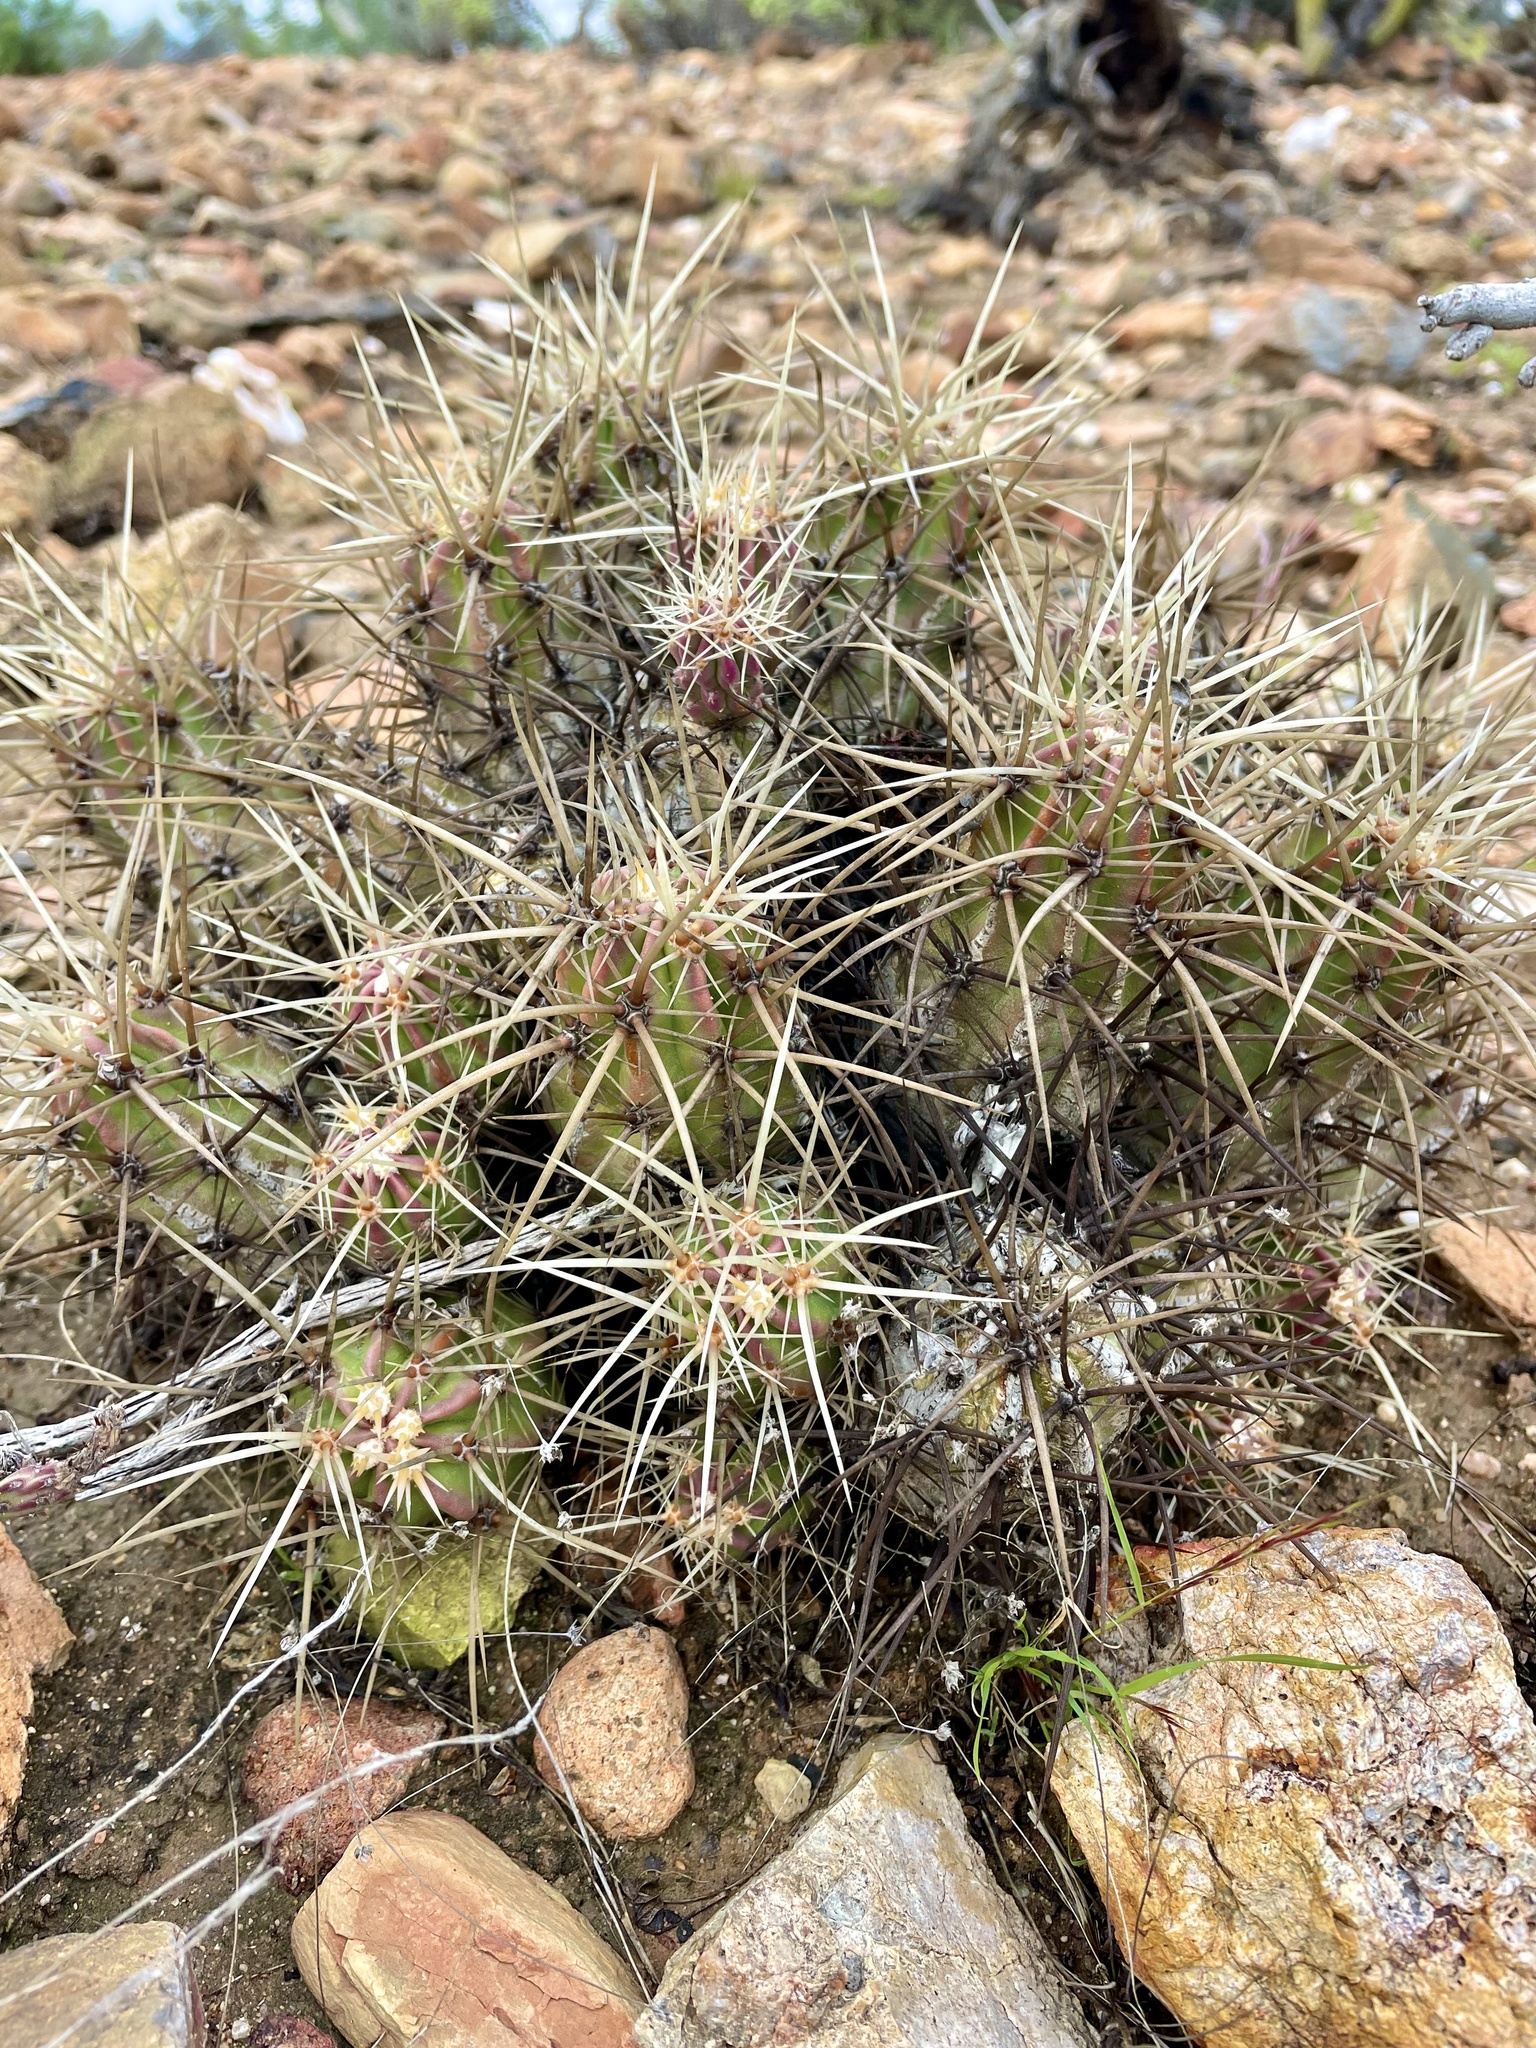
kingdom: Plantae
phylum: Tracheophyta
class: Magnoliopsida
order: Caryophyllales
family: Cactaceae
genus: Echinocereus
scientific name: Echinocereus maritimus
